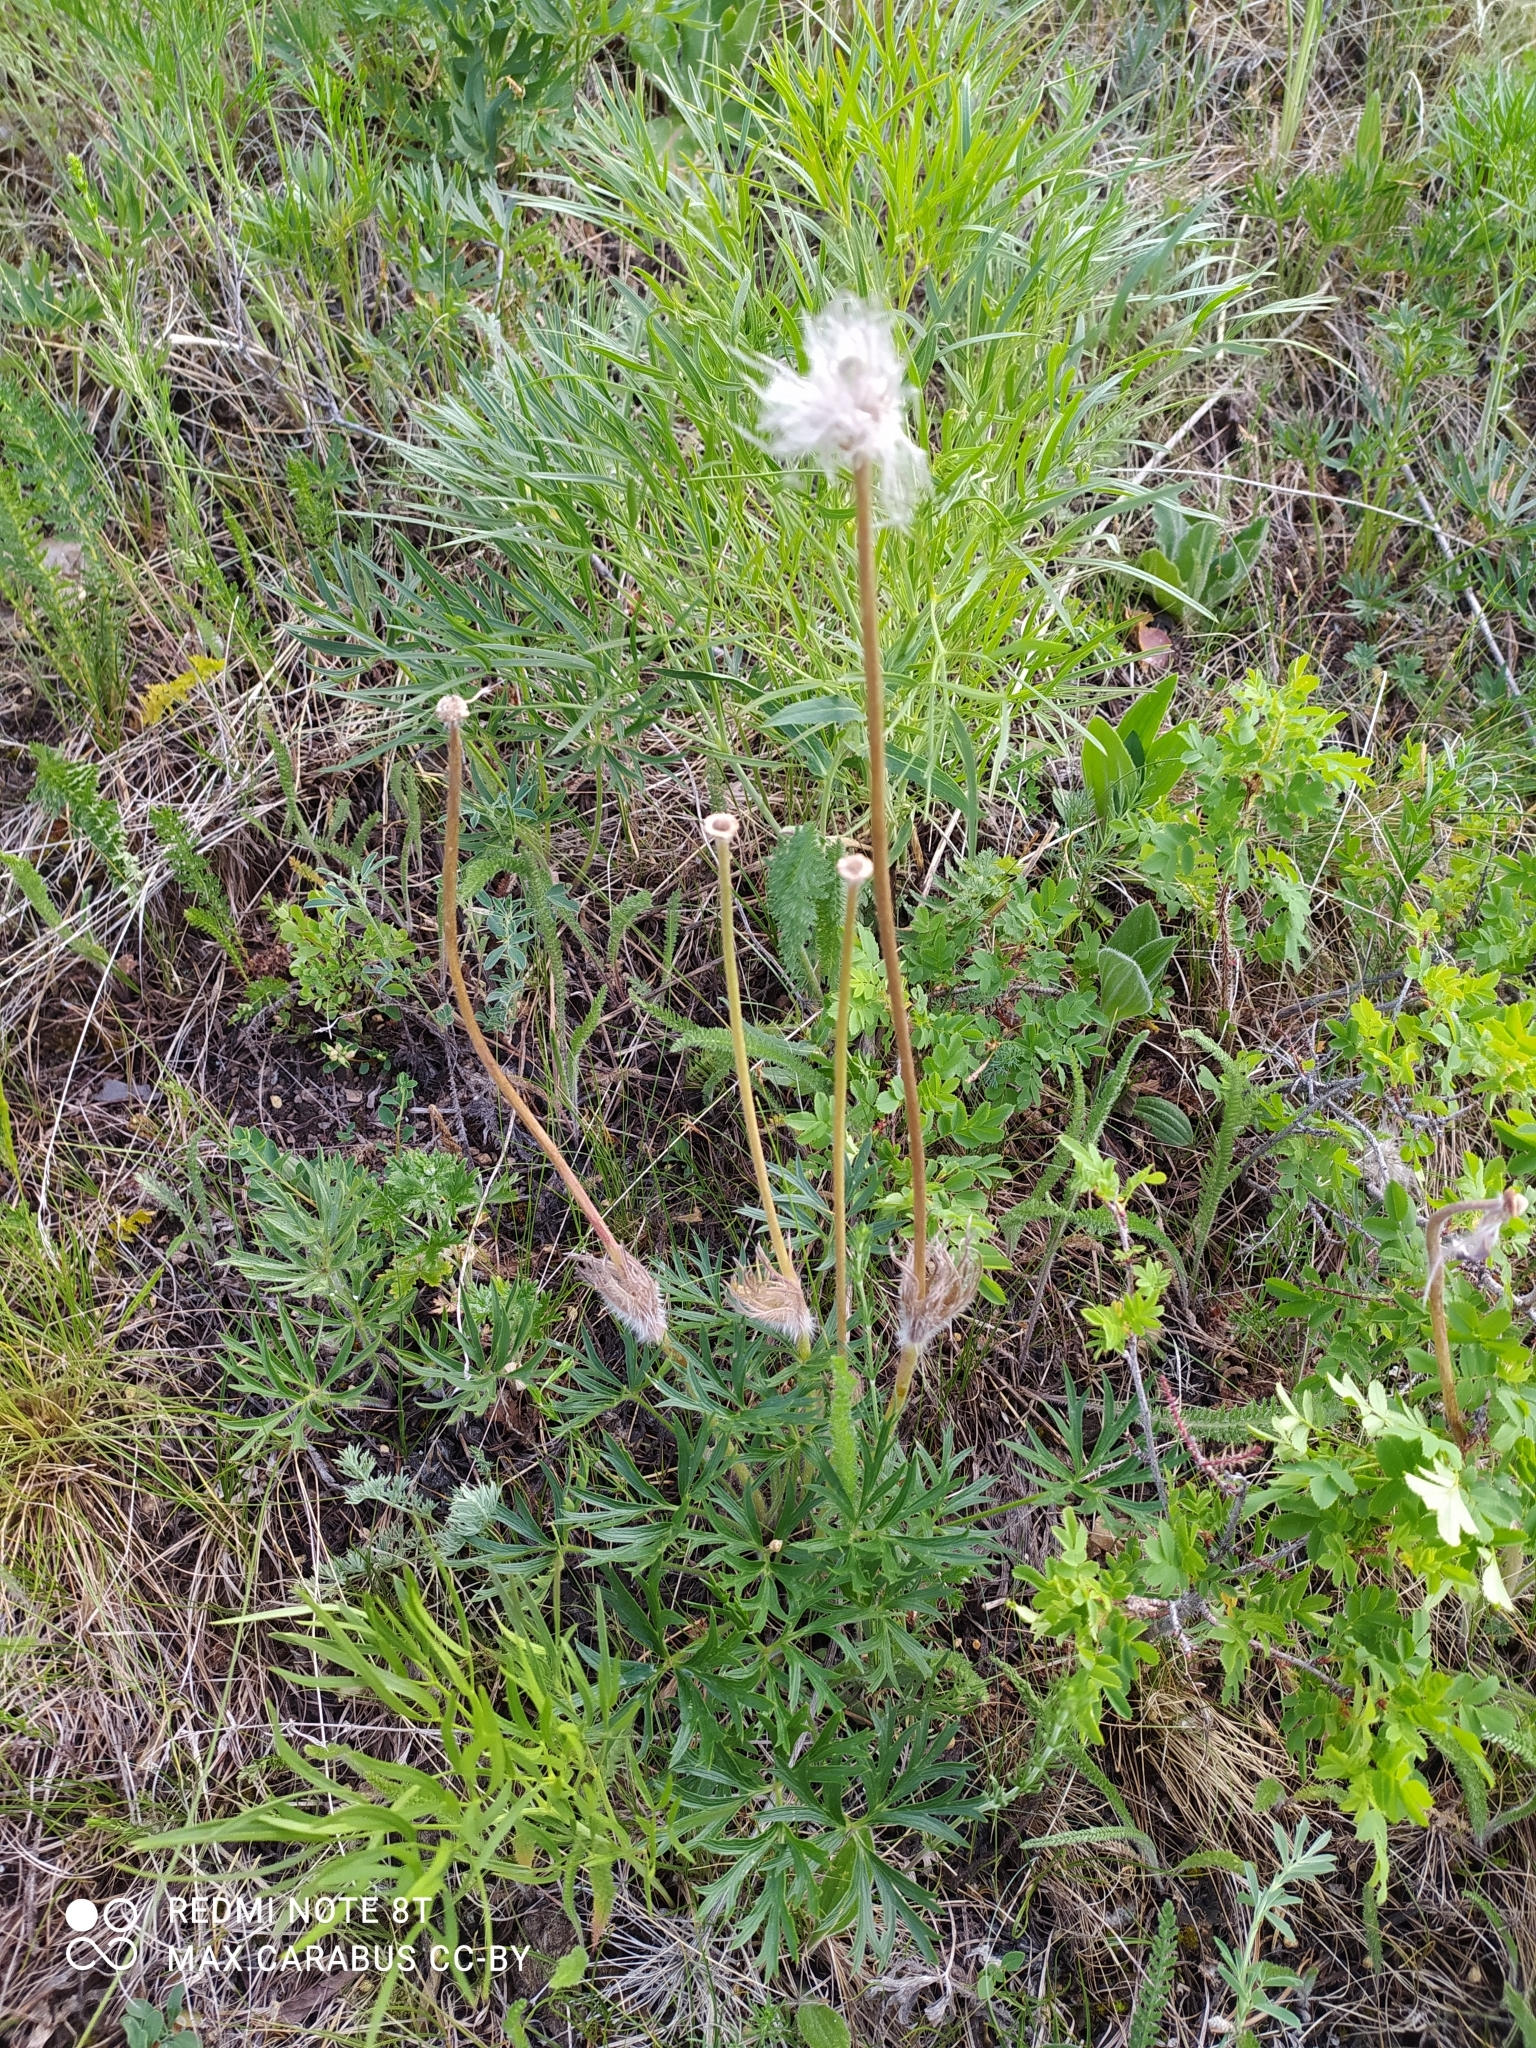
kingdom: Plantae
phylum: Tracheophyta
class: Magnoliopsida
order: Ranunculales
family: Ranunculaceae
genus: Pulsatilla
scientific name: Pulsatilla patens
